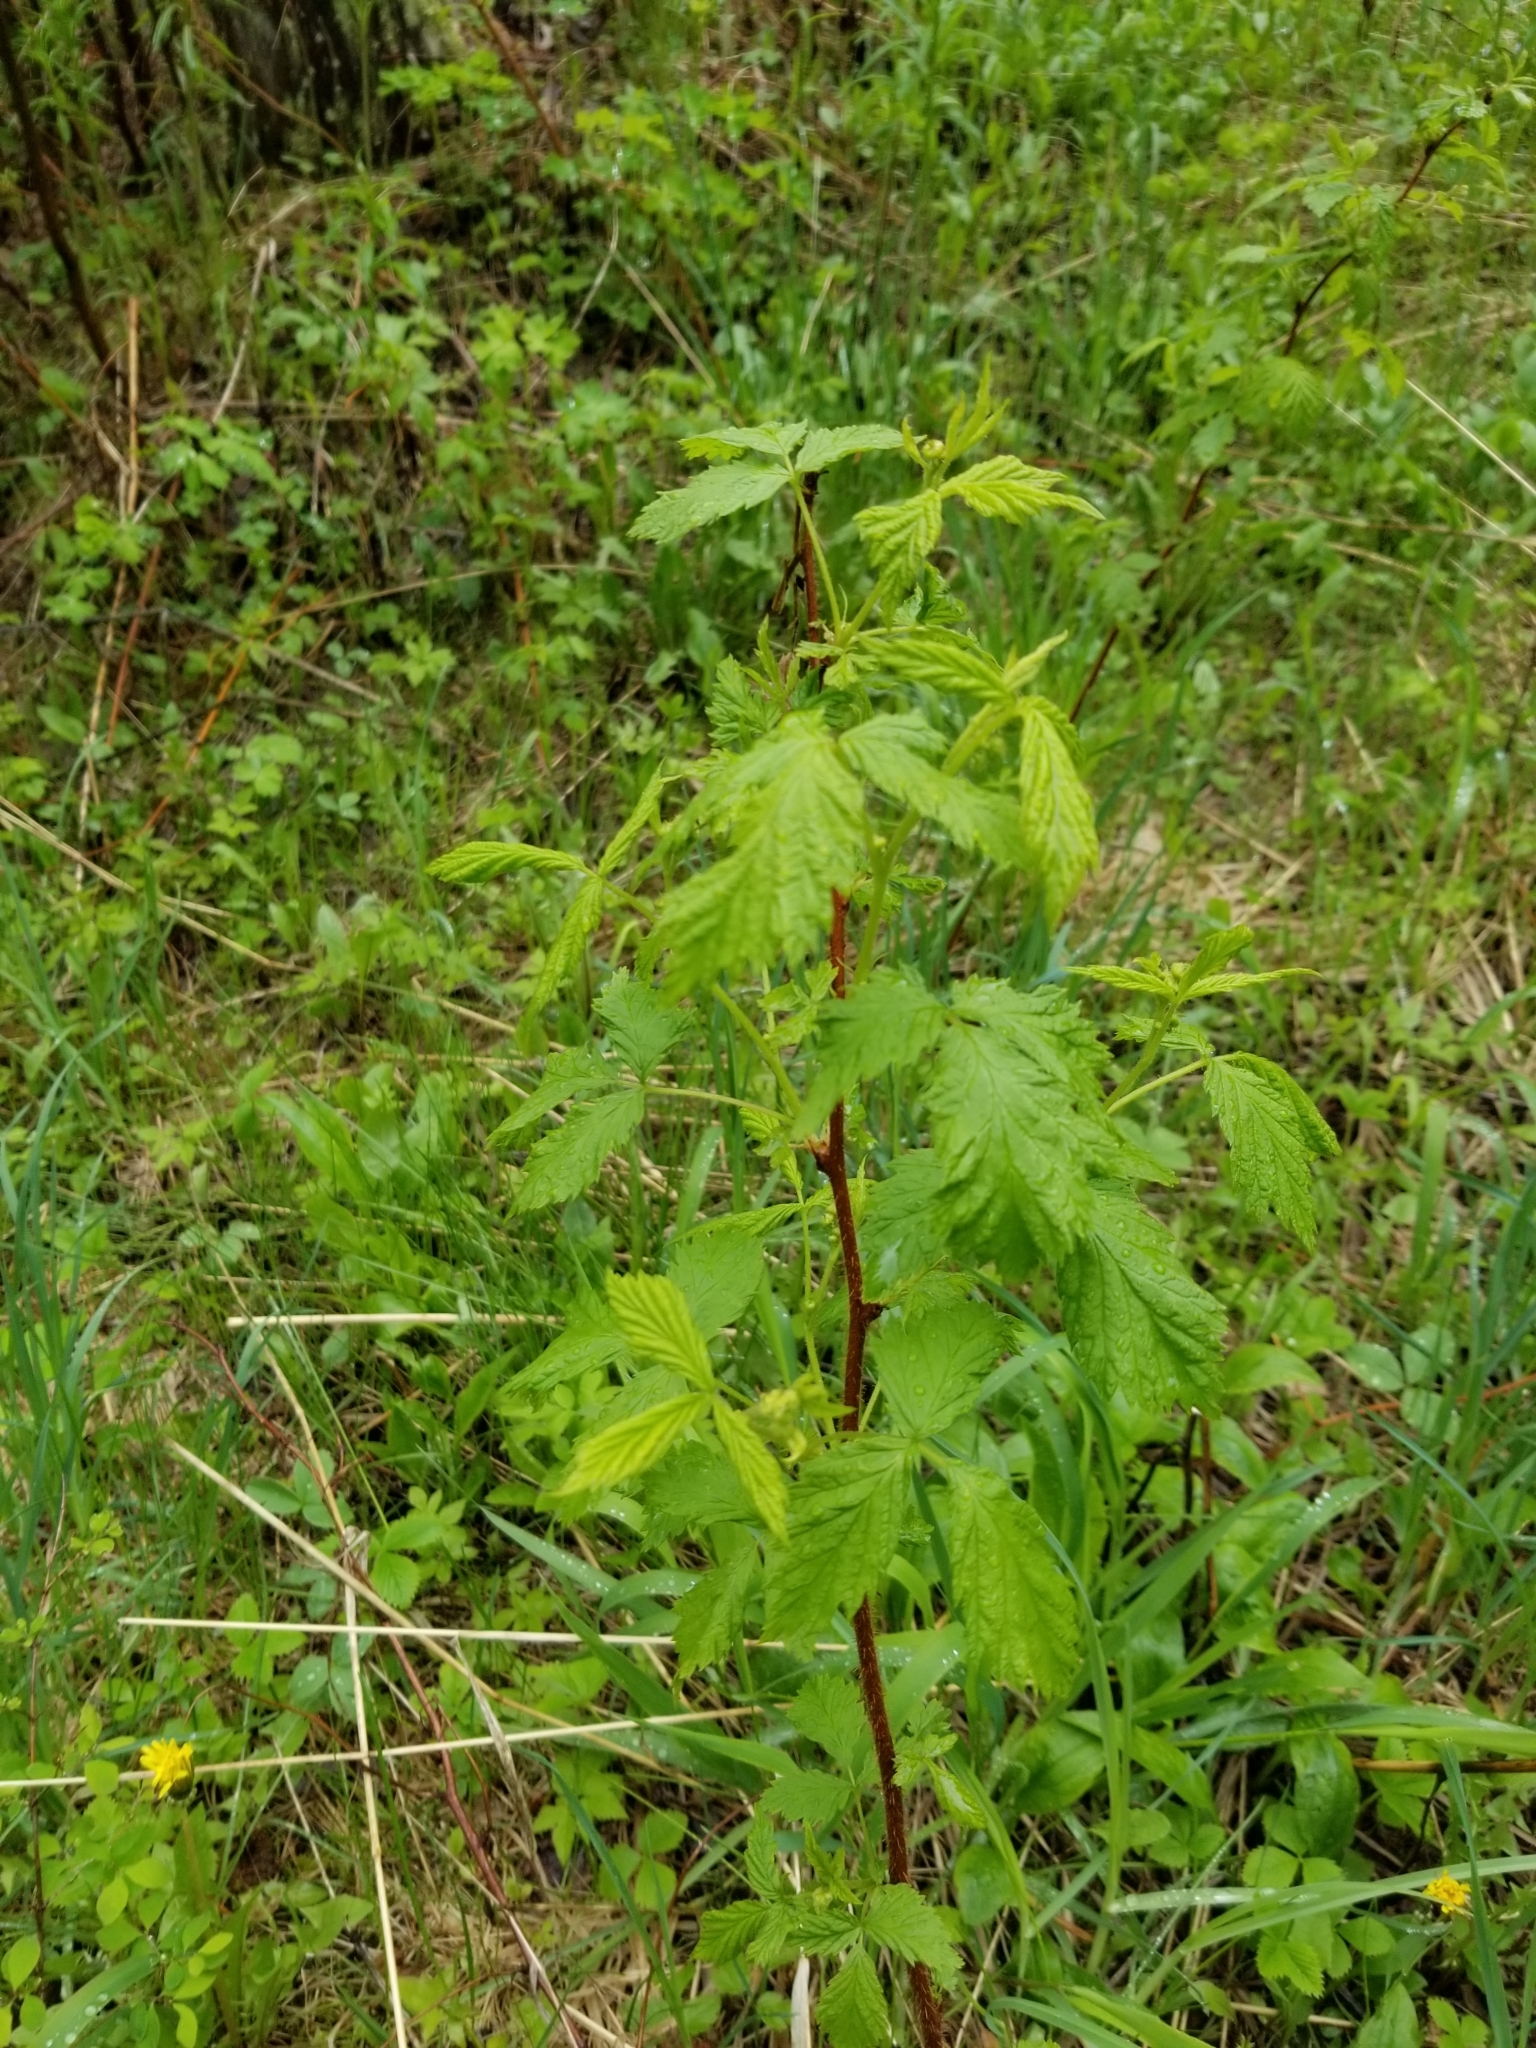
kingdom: Plantae
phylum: Tracheophyta
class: Magnoliopsida
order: Rosales
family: Rosaceae
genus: Rubus
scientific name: Rubus idaeus
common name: Raspberry
